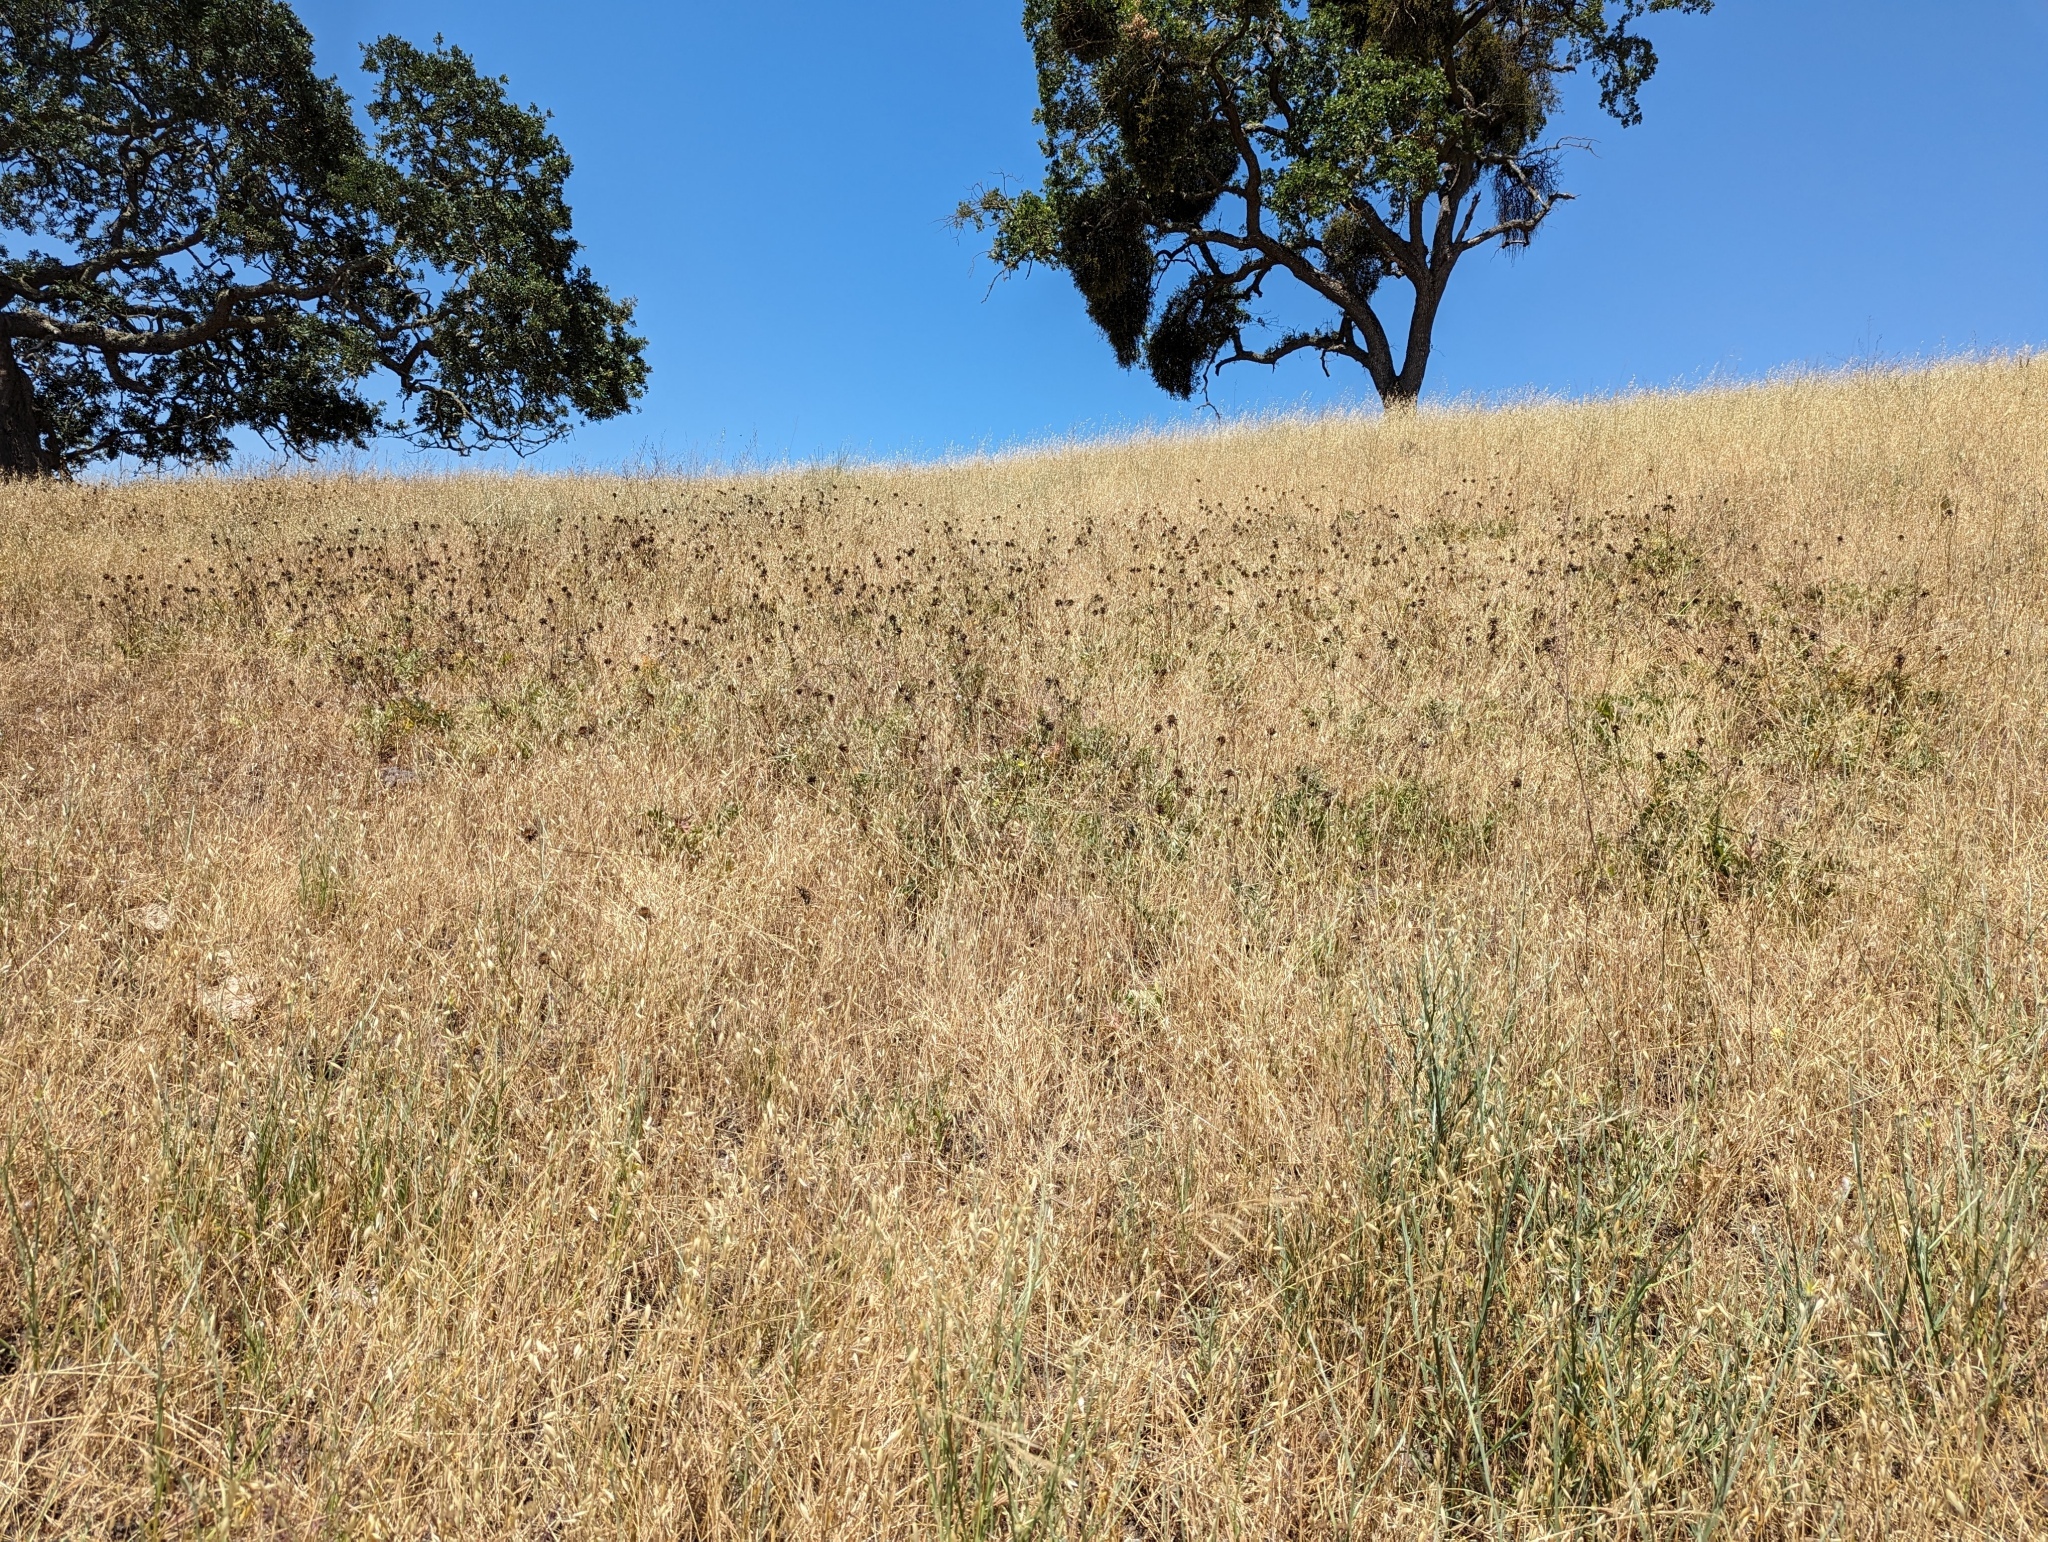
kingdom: Plantae
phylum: Tracheophyta
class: Magnoliopsida
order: Asterales
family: Asteraceae
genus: Balsamorhiza
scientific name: Balsamorhiza macrolepis
